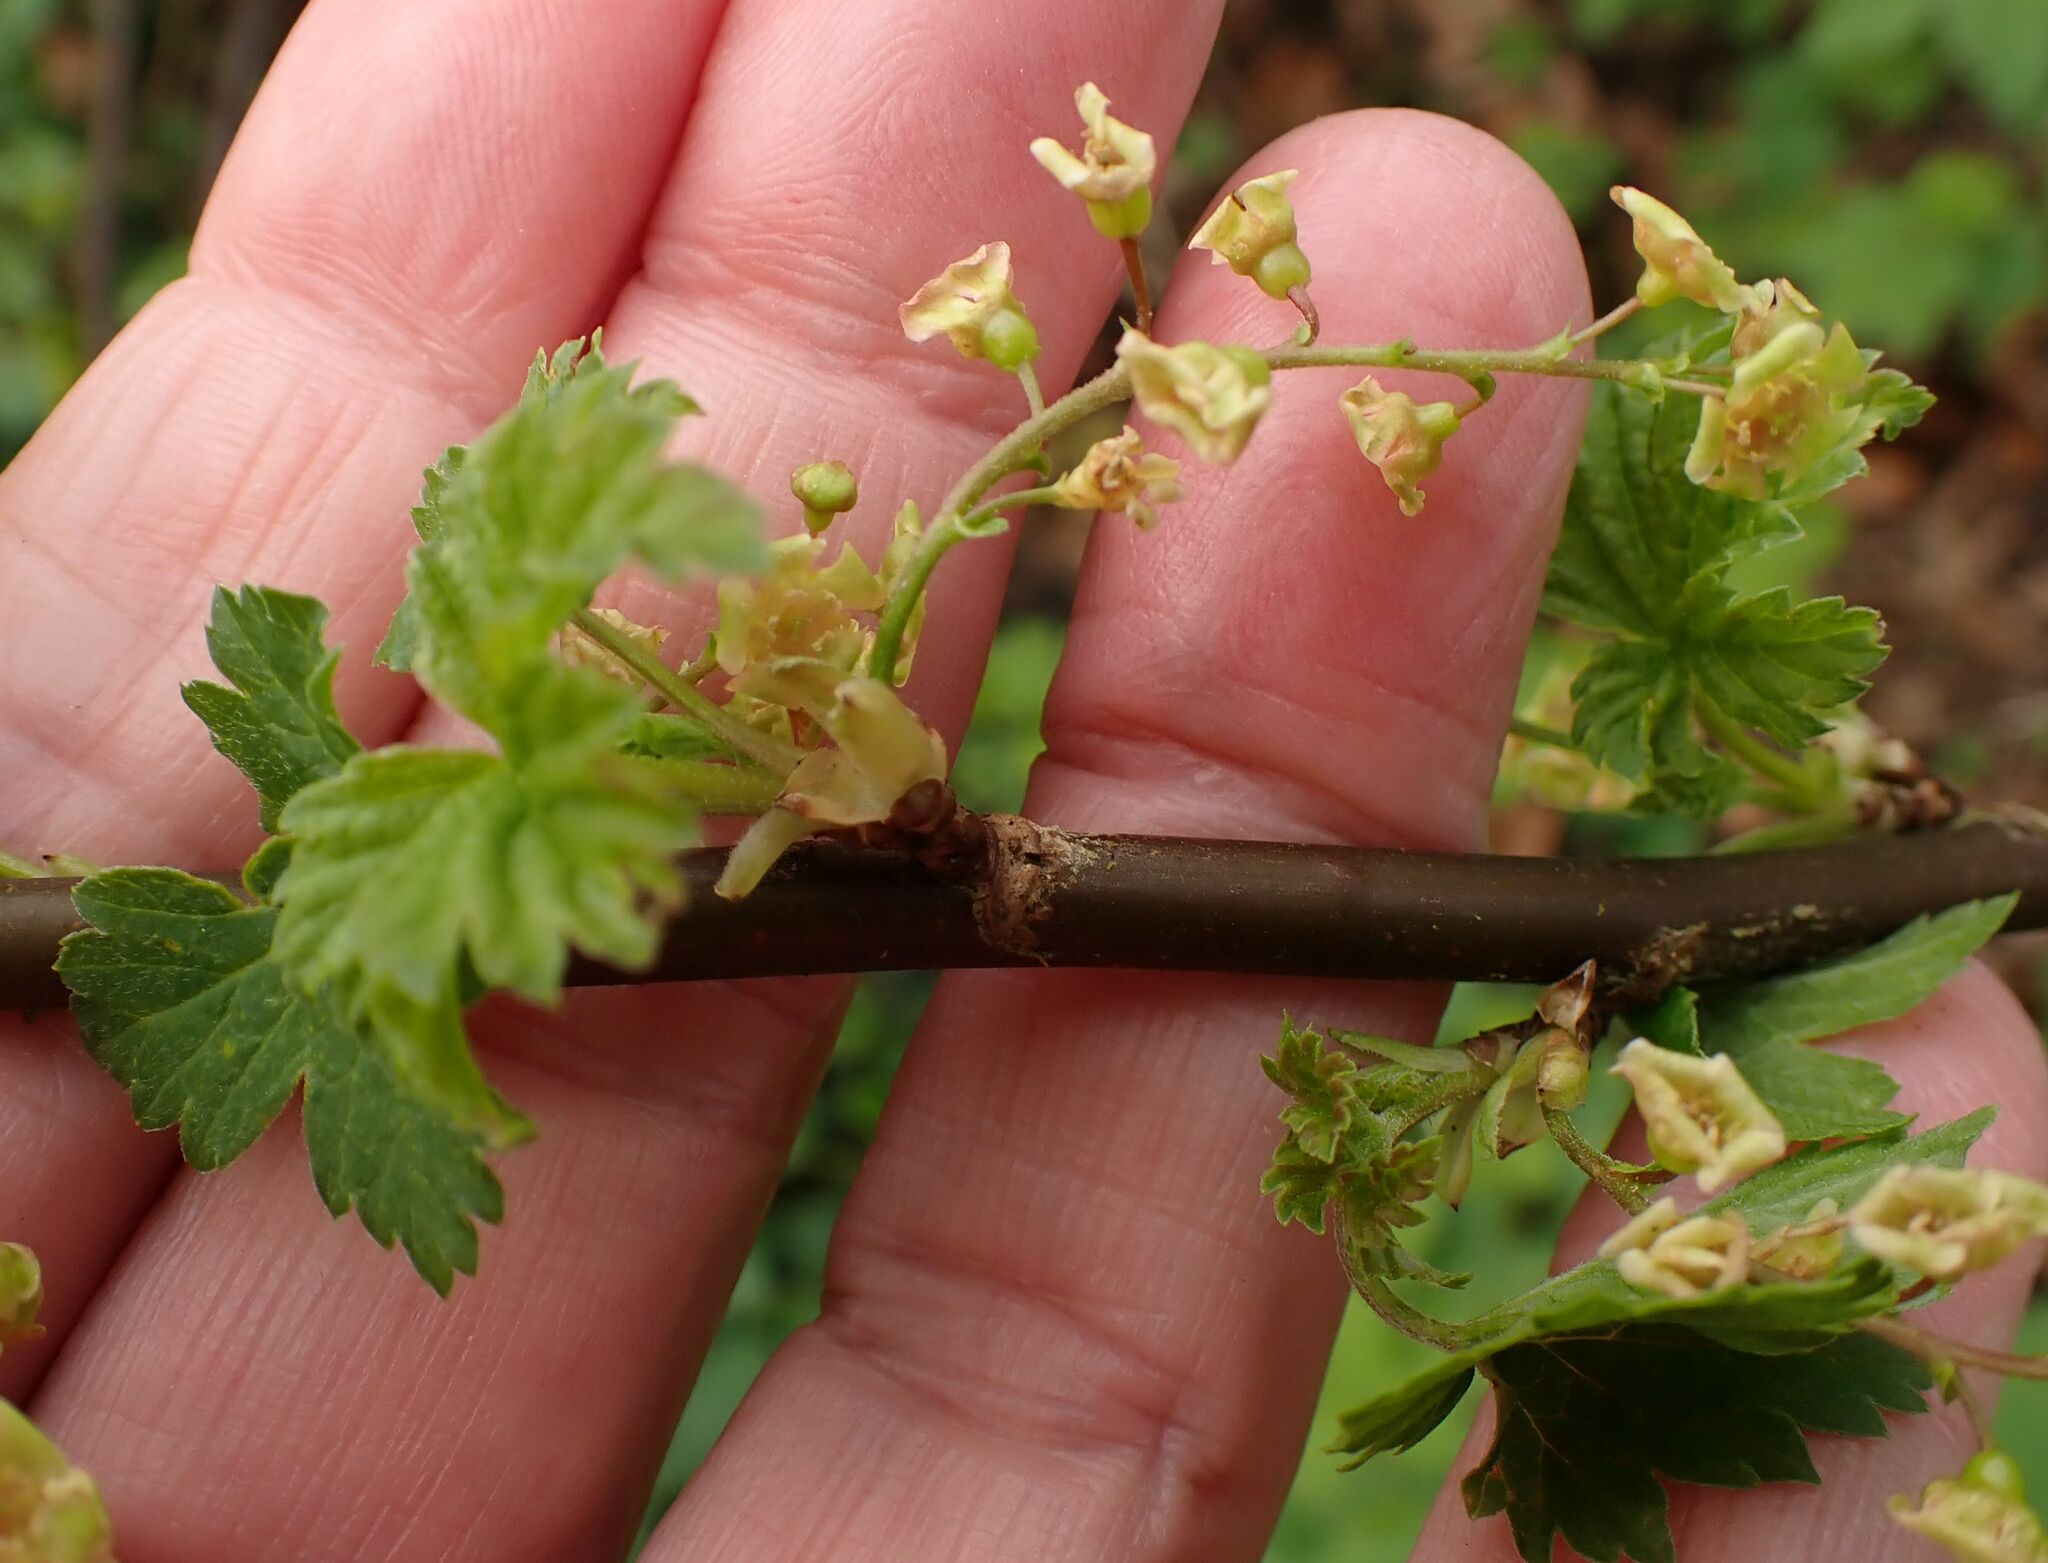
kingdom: Plantae
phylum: Tracheophyta
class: Magnoliopsida
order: Saxifragales
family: Grossulariaceae
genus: Ribes
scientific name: Ribes rubrum
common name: Red currant
